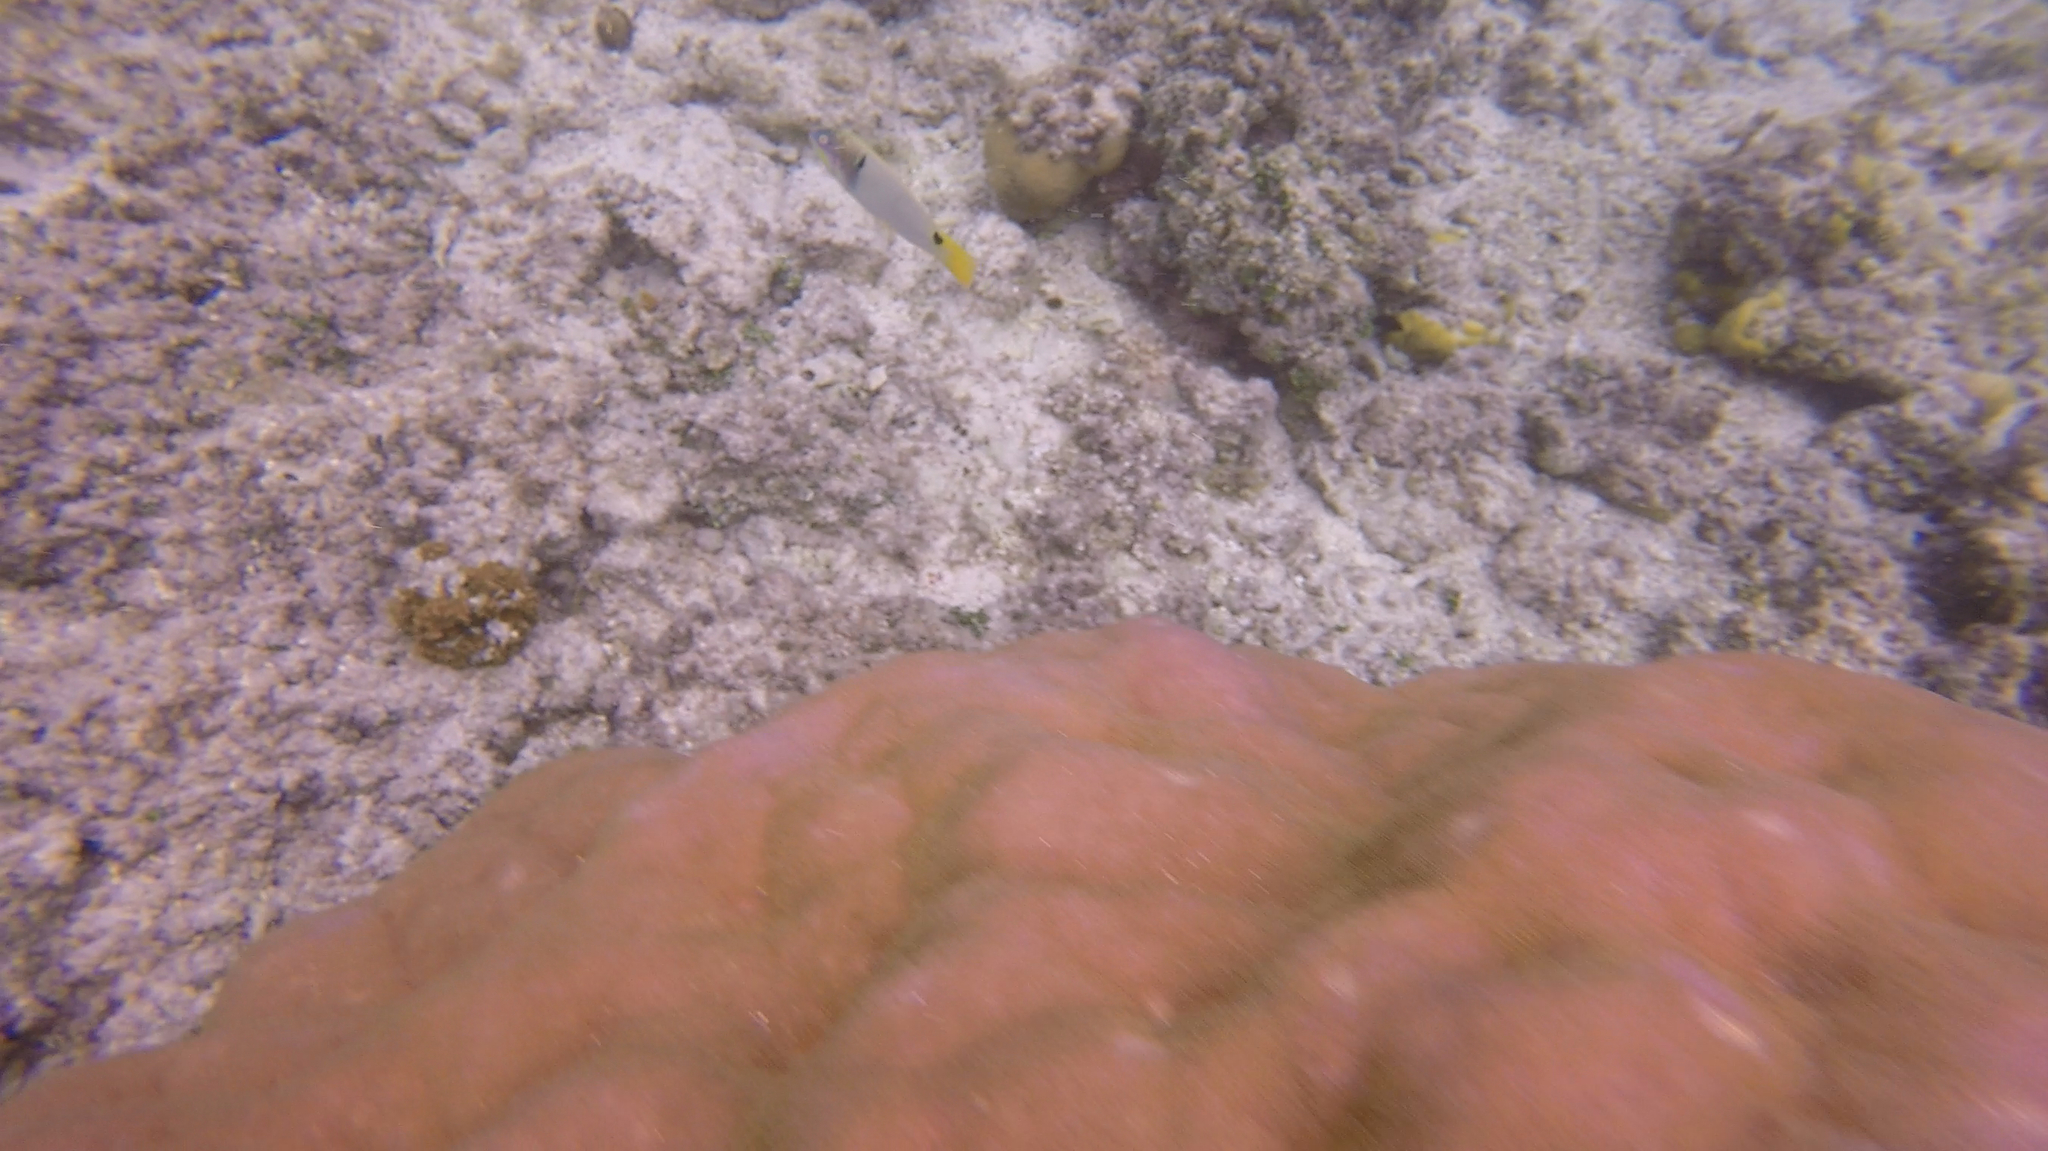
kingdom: Animalia
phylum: Chordata
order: Perciformes
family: Labridae
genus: Halichoeres
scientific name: Halichoeres trimaculatus
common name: Three-spot wrasse
